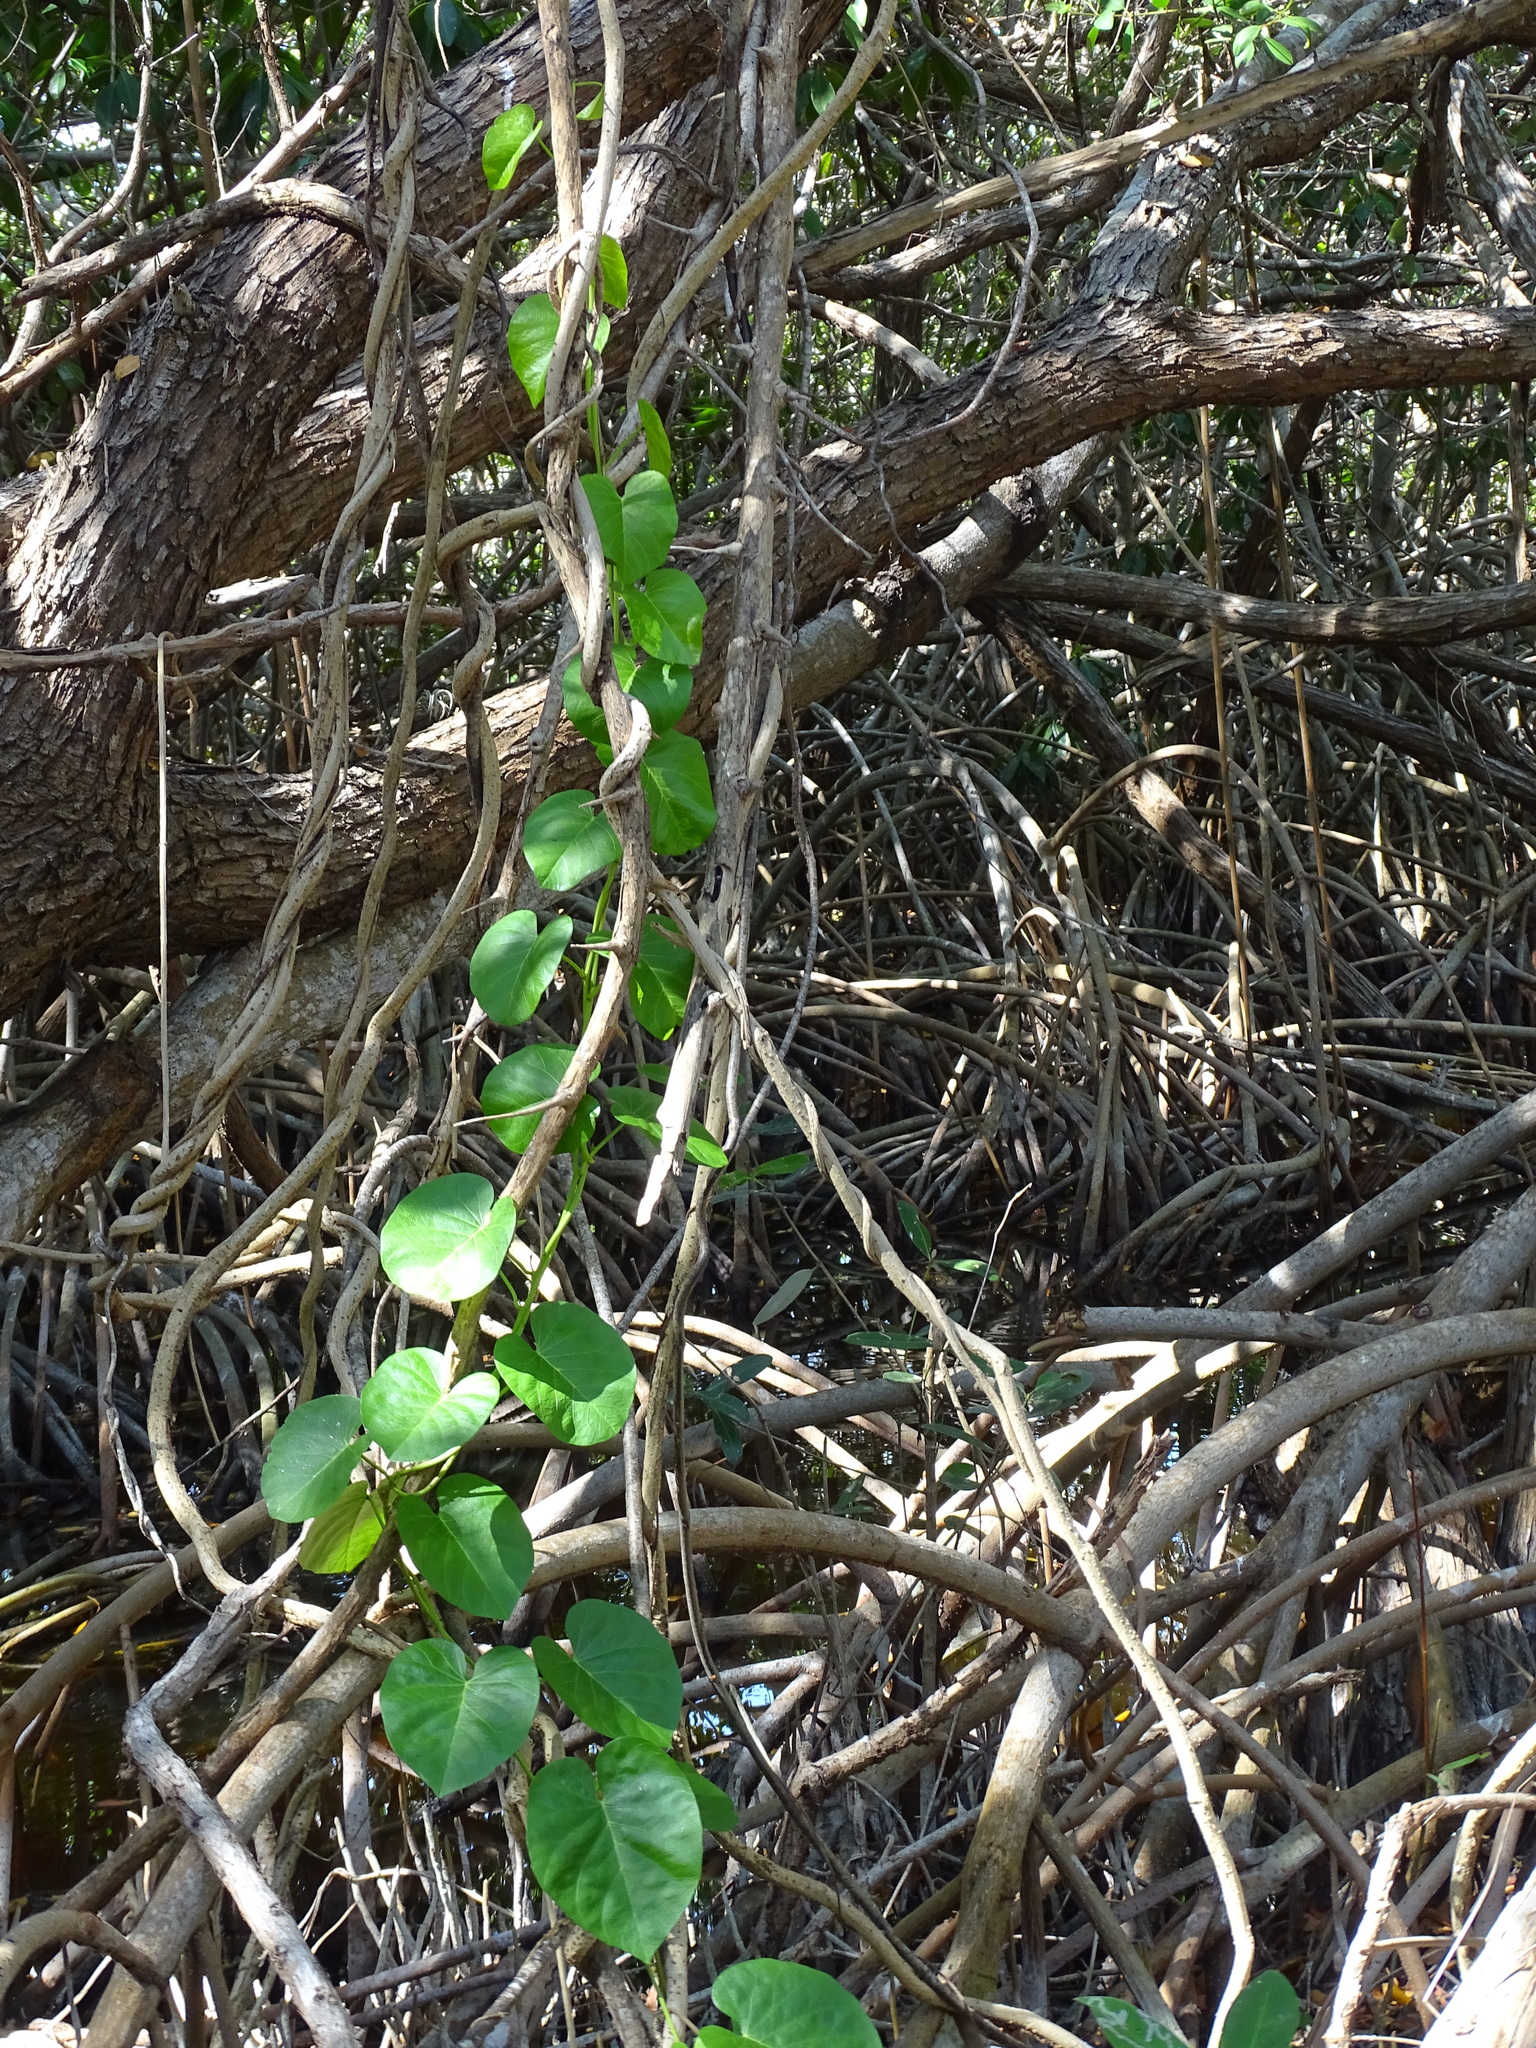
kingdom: Plantae
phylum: Tracheophyta
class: Magnoliopsida
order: Solanales
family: Convolvulaceae
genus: Ipomoea
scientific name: Ipomoea violacea
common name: Beach moonflower
